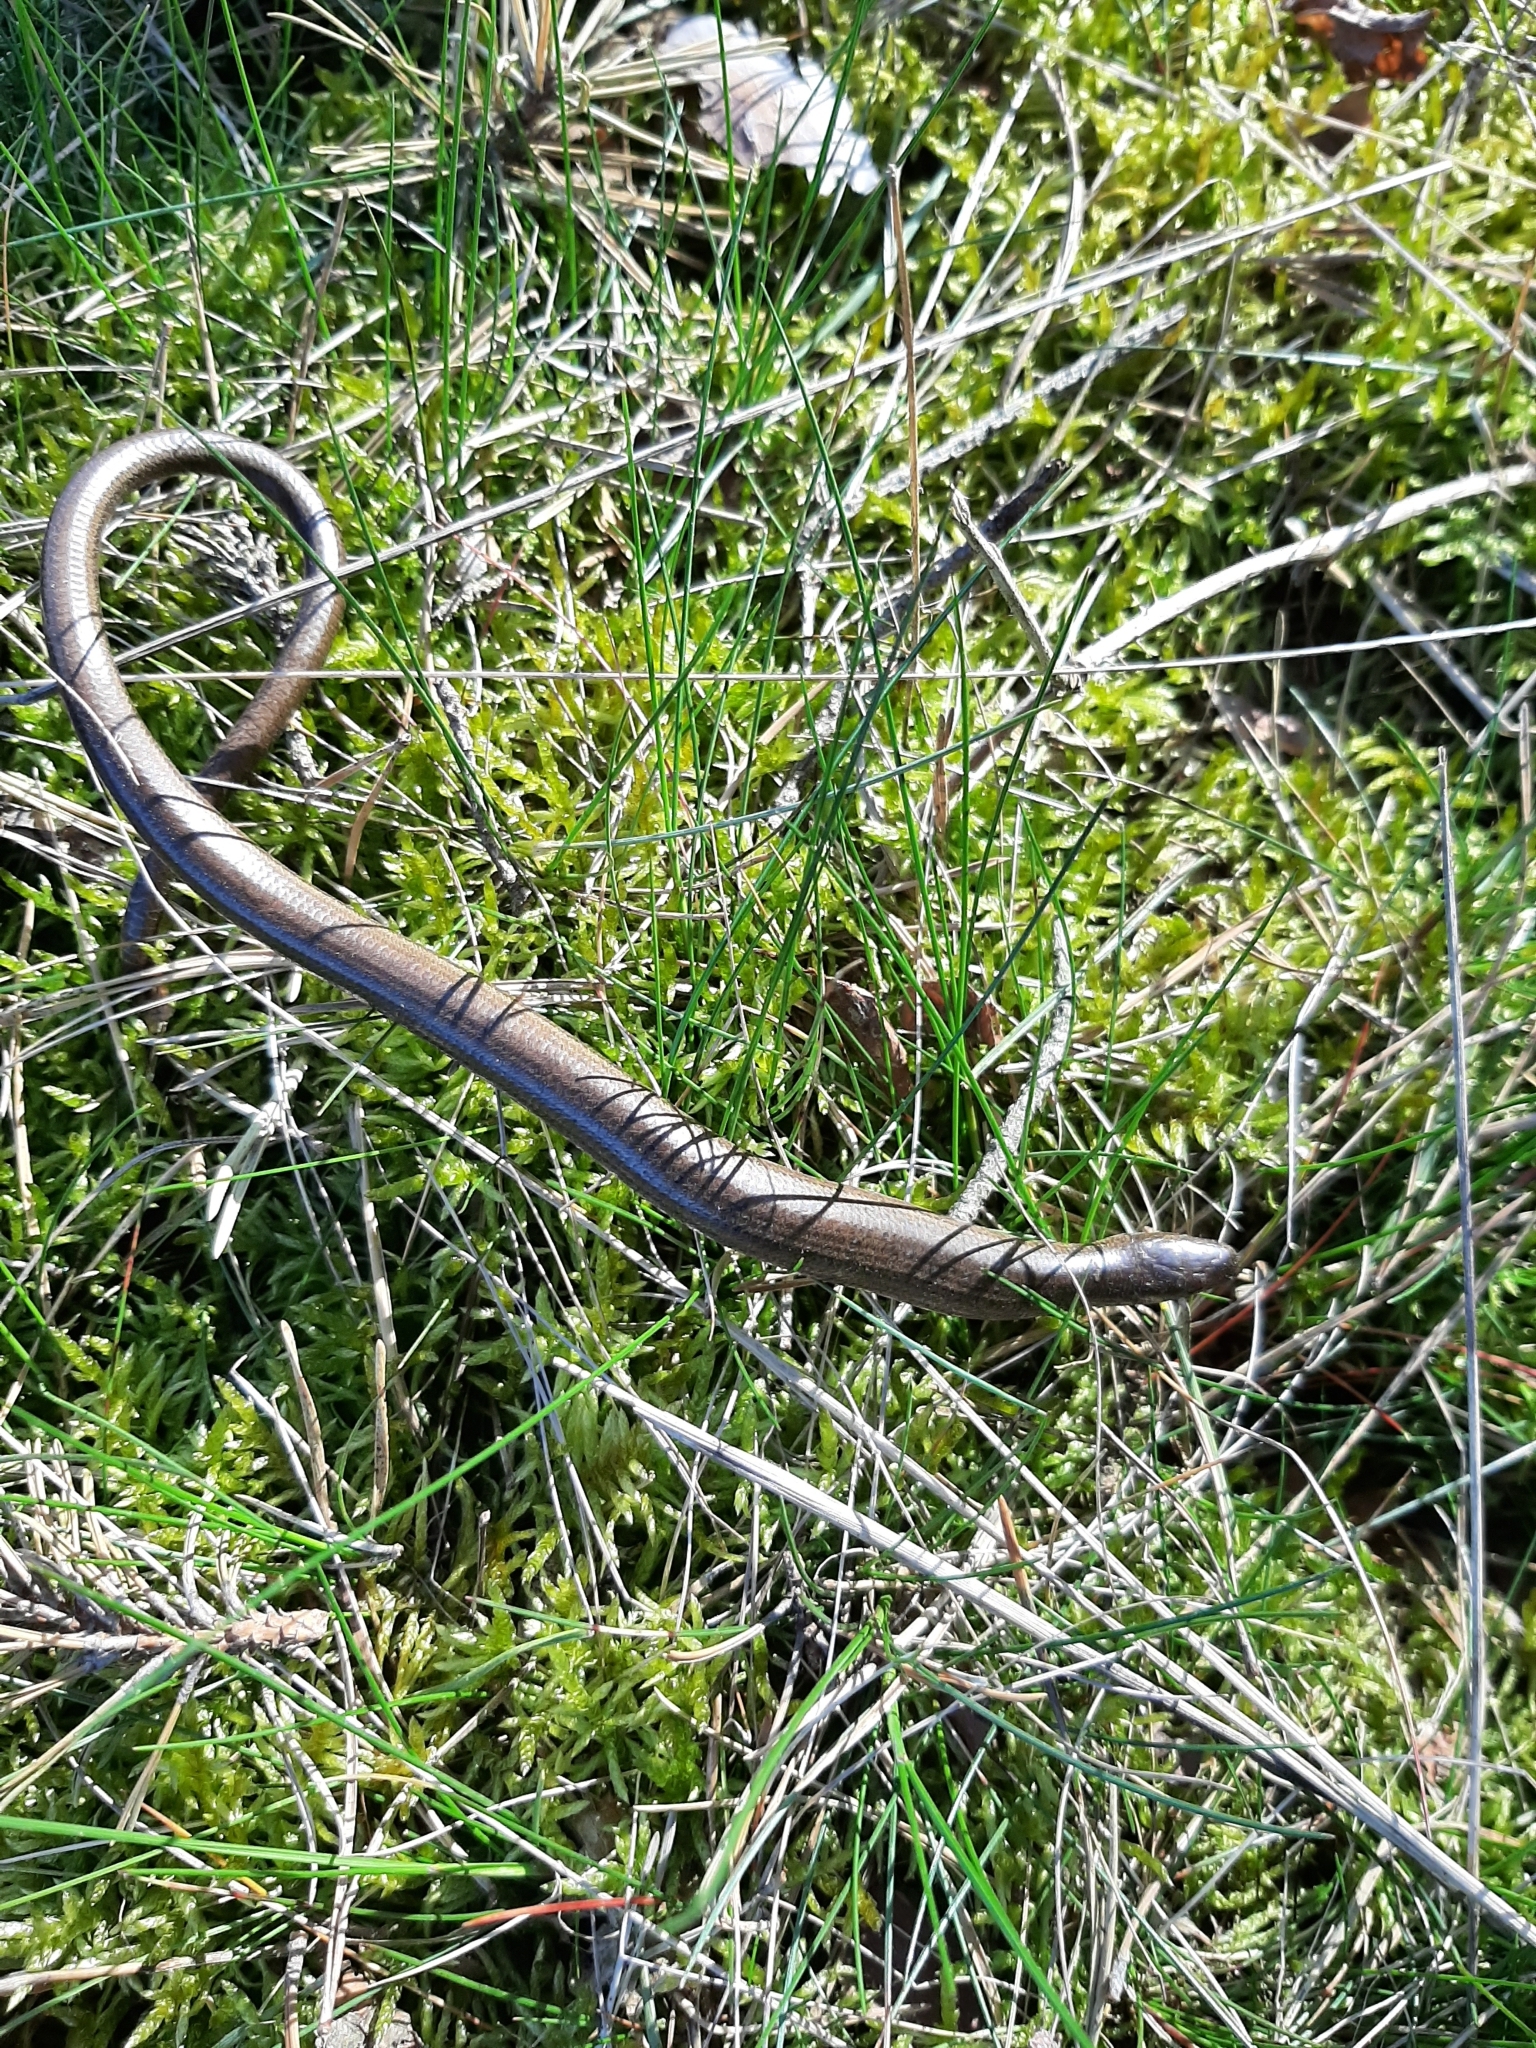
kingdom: Animalia
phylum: Chordata
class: Squamata
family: Anguidae
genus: Anguis
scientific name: Anguis fragilis
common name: Slow worm
